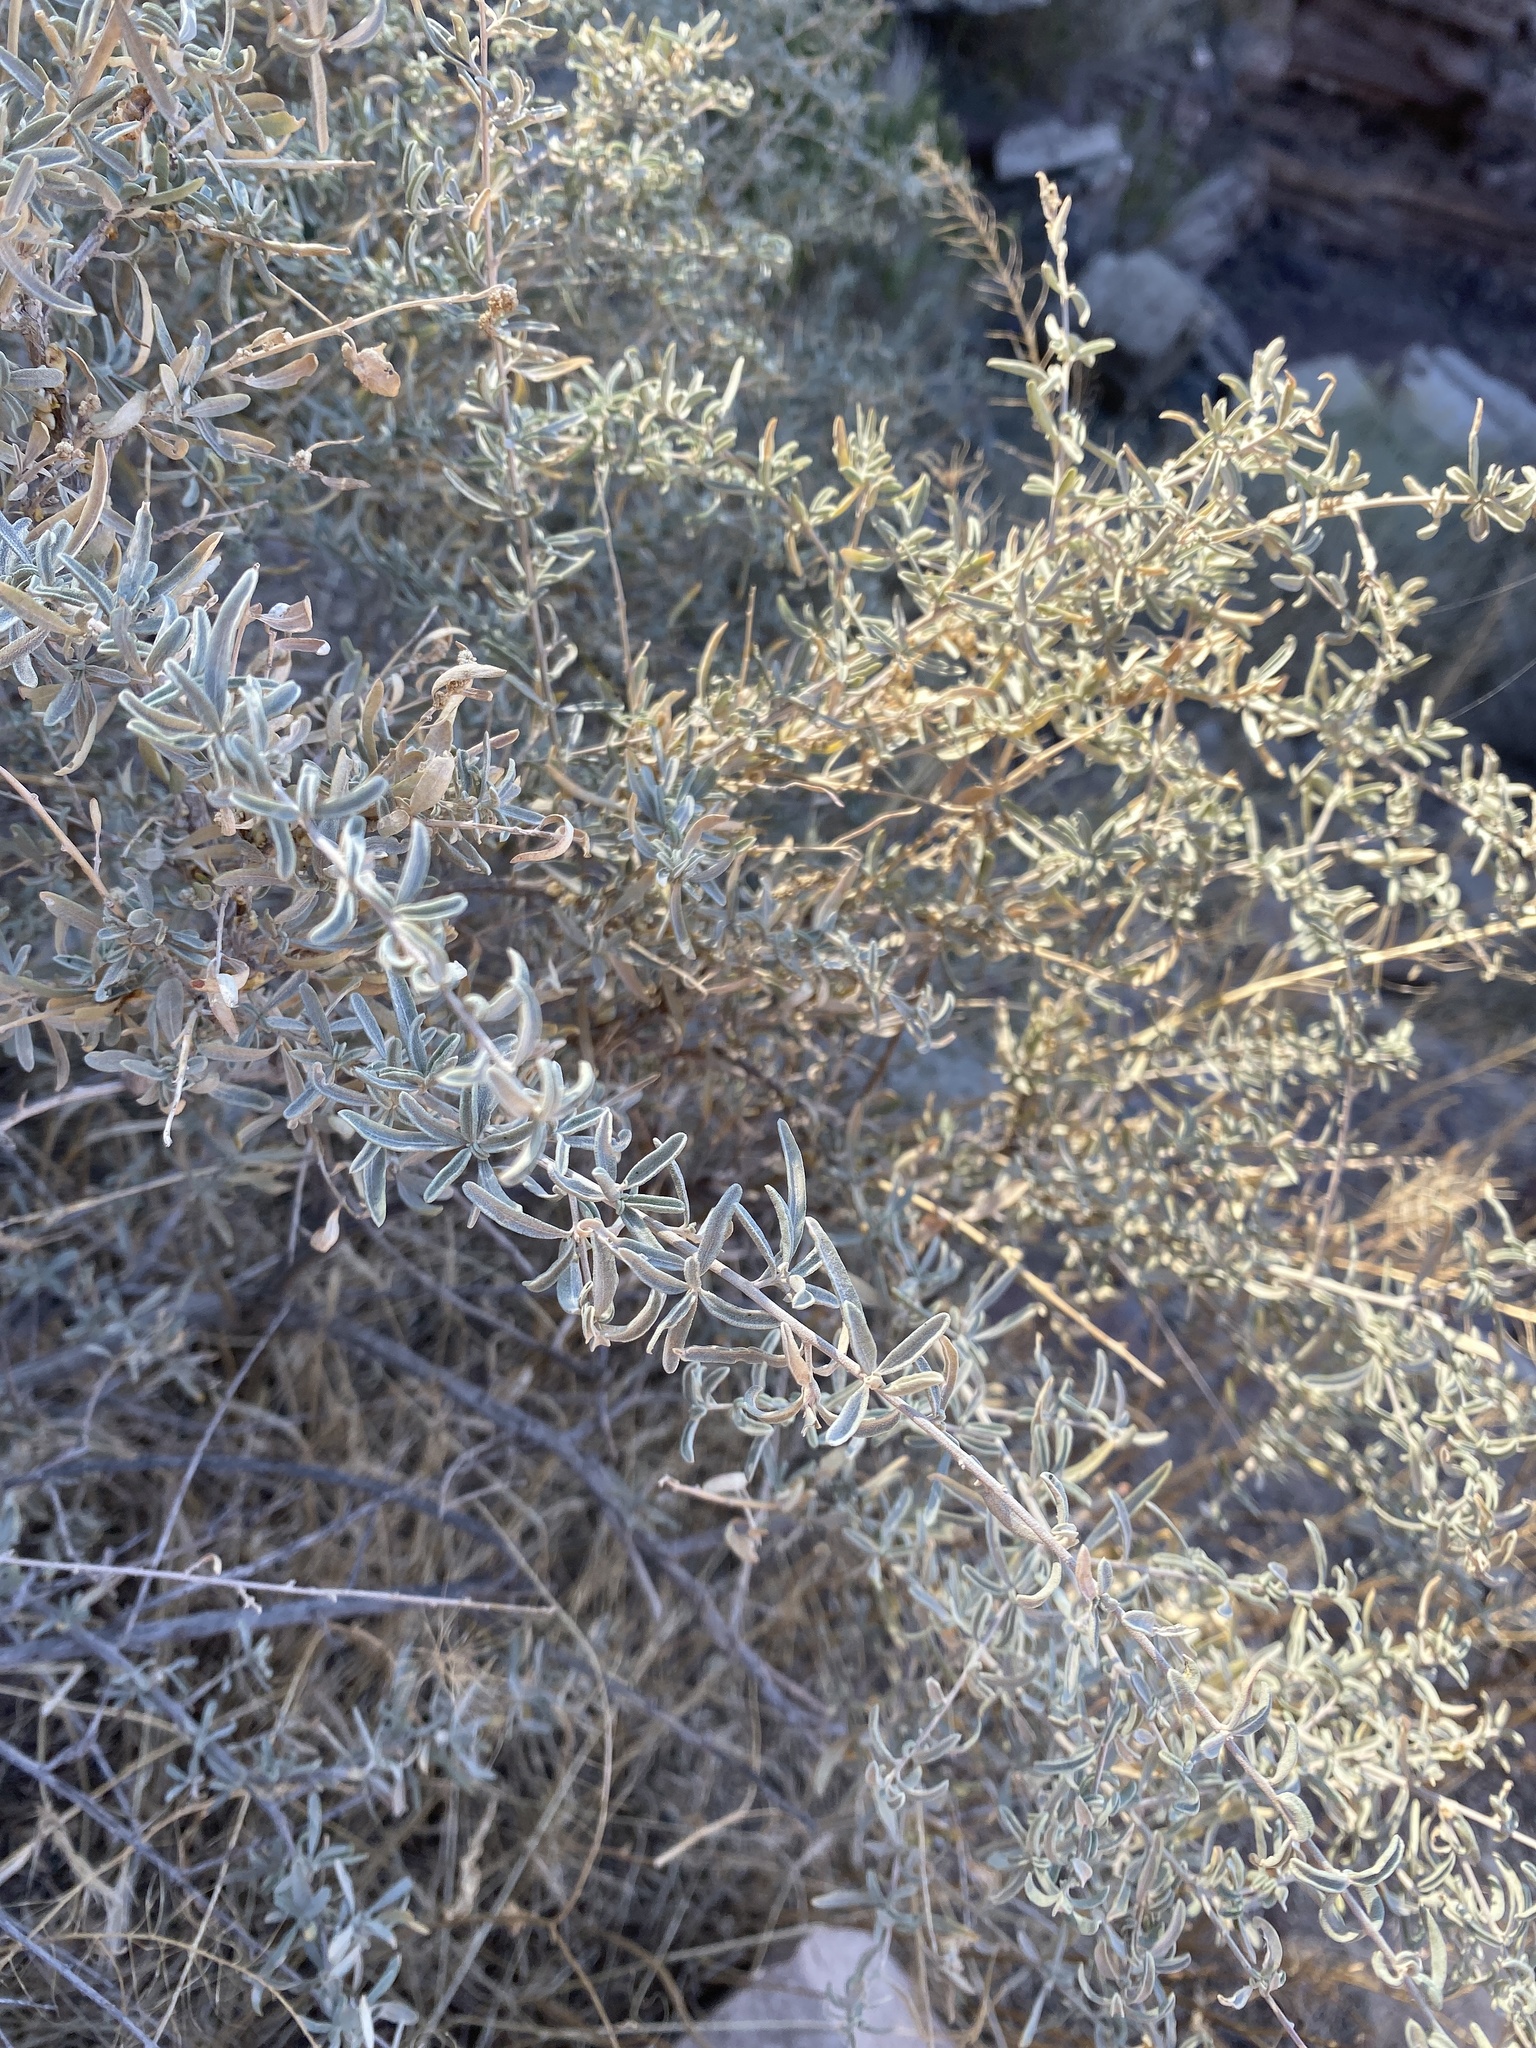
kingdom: Plantae
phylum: Tracheophyta
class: Magnoliopsida
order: Caryophyllales
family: Amaranthaceae
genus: Atriplex
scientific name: Atriplex canescens
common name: Four-wing saltbush
